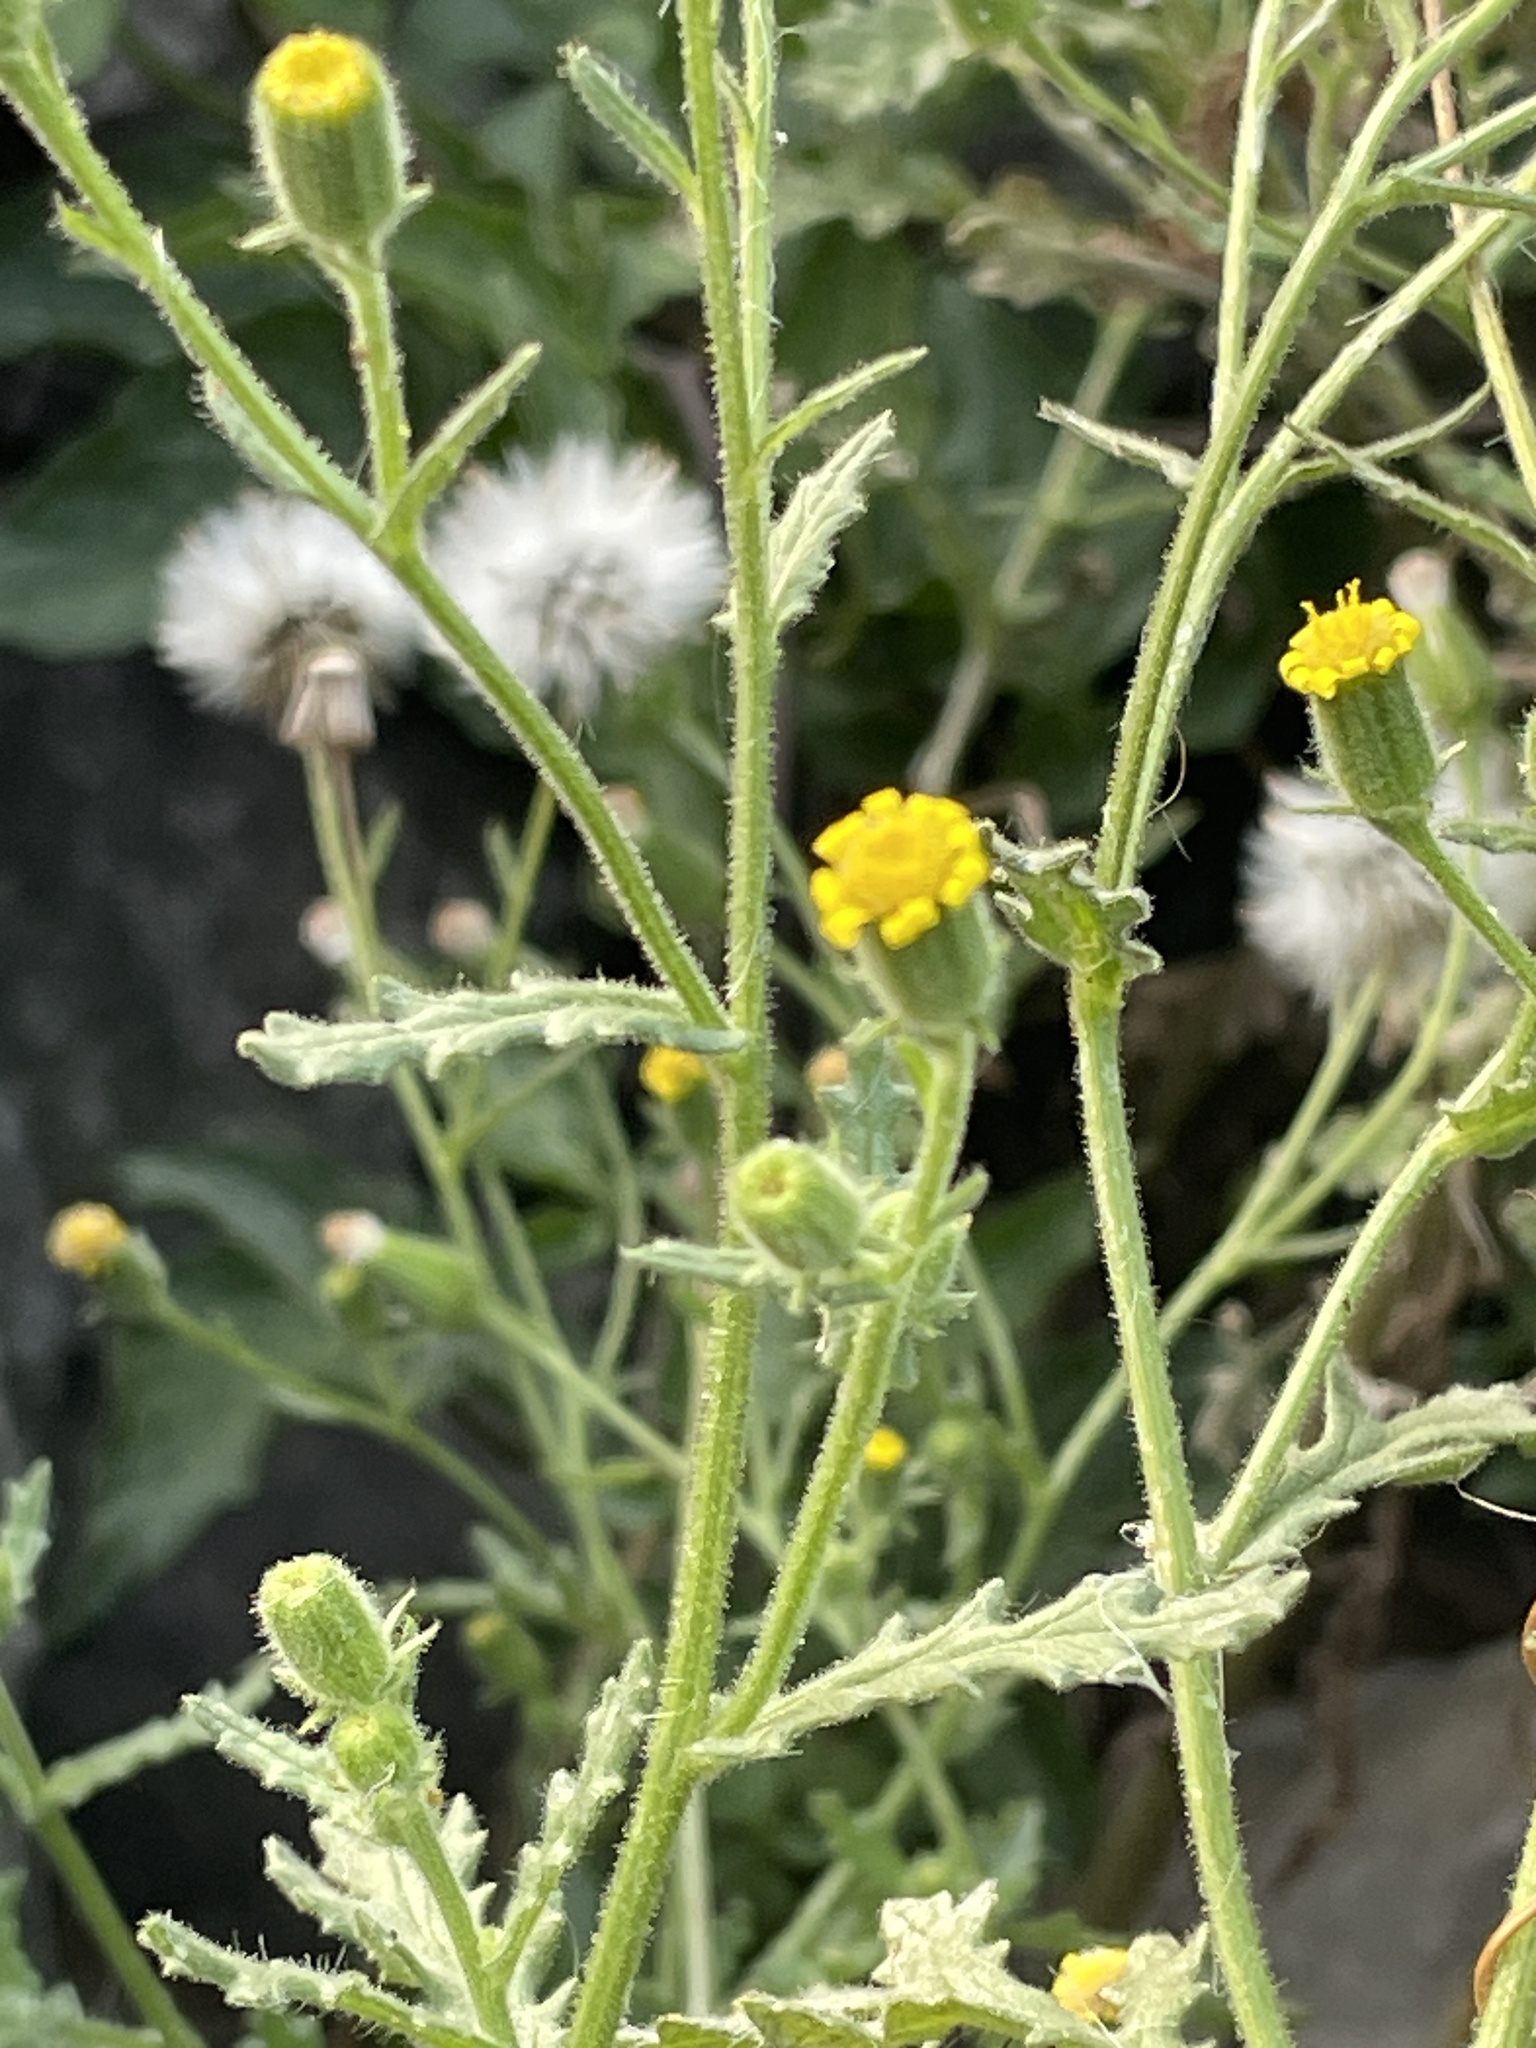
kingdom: Plantae
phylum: Tracheophyta
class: Magnoliopsida
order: Asterales
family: Asteraceae
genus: Senecio
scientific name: Senecio viscosus
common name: Sticky groundsel
